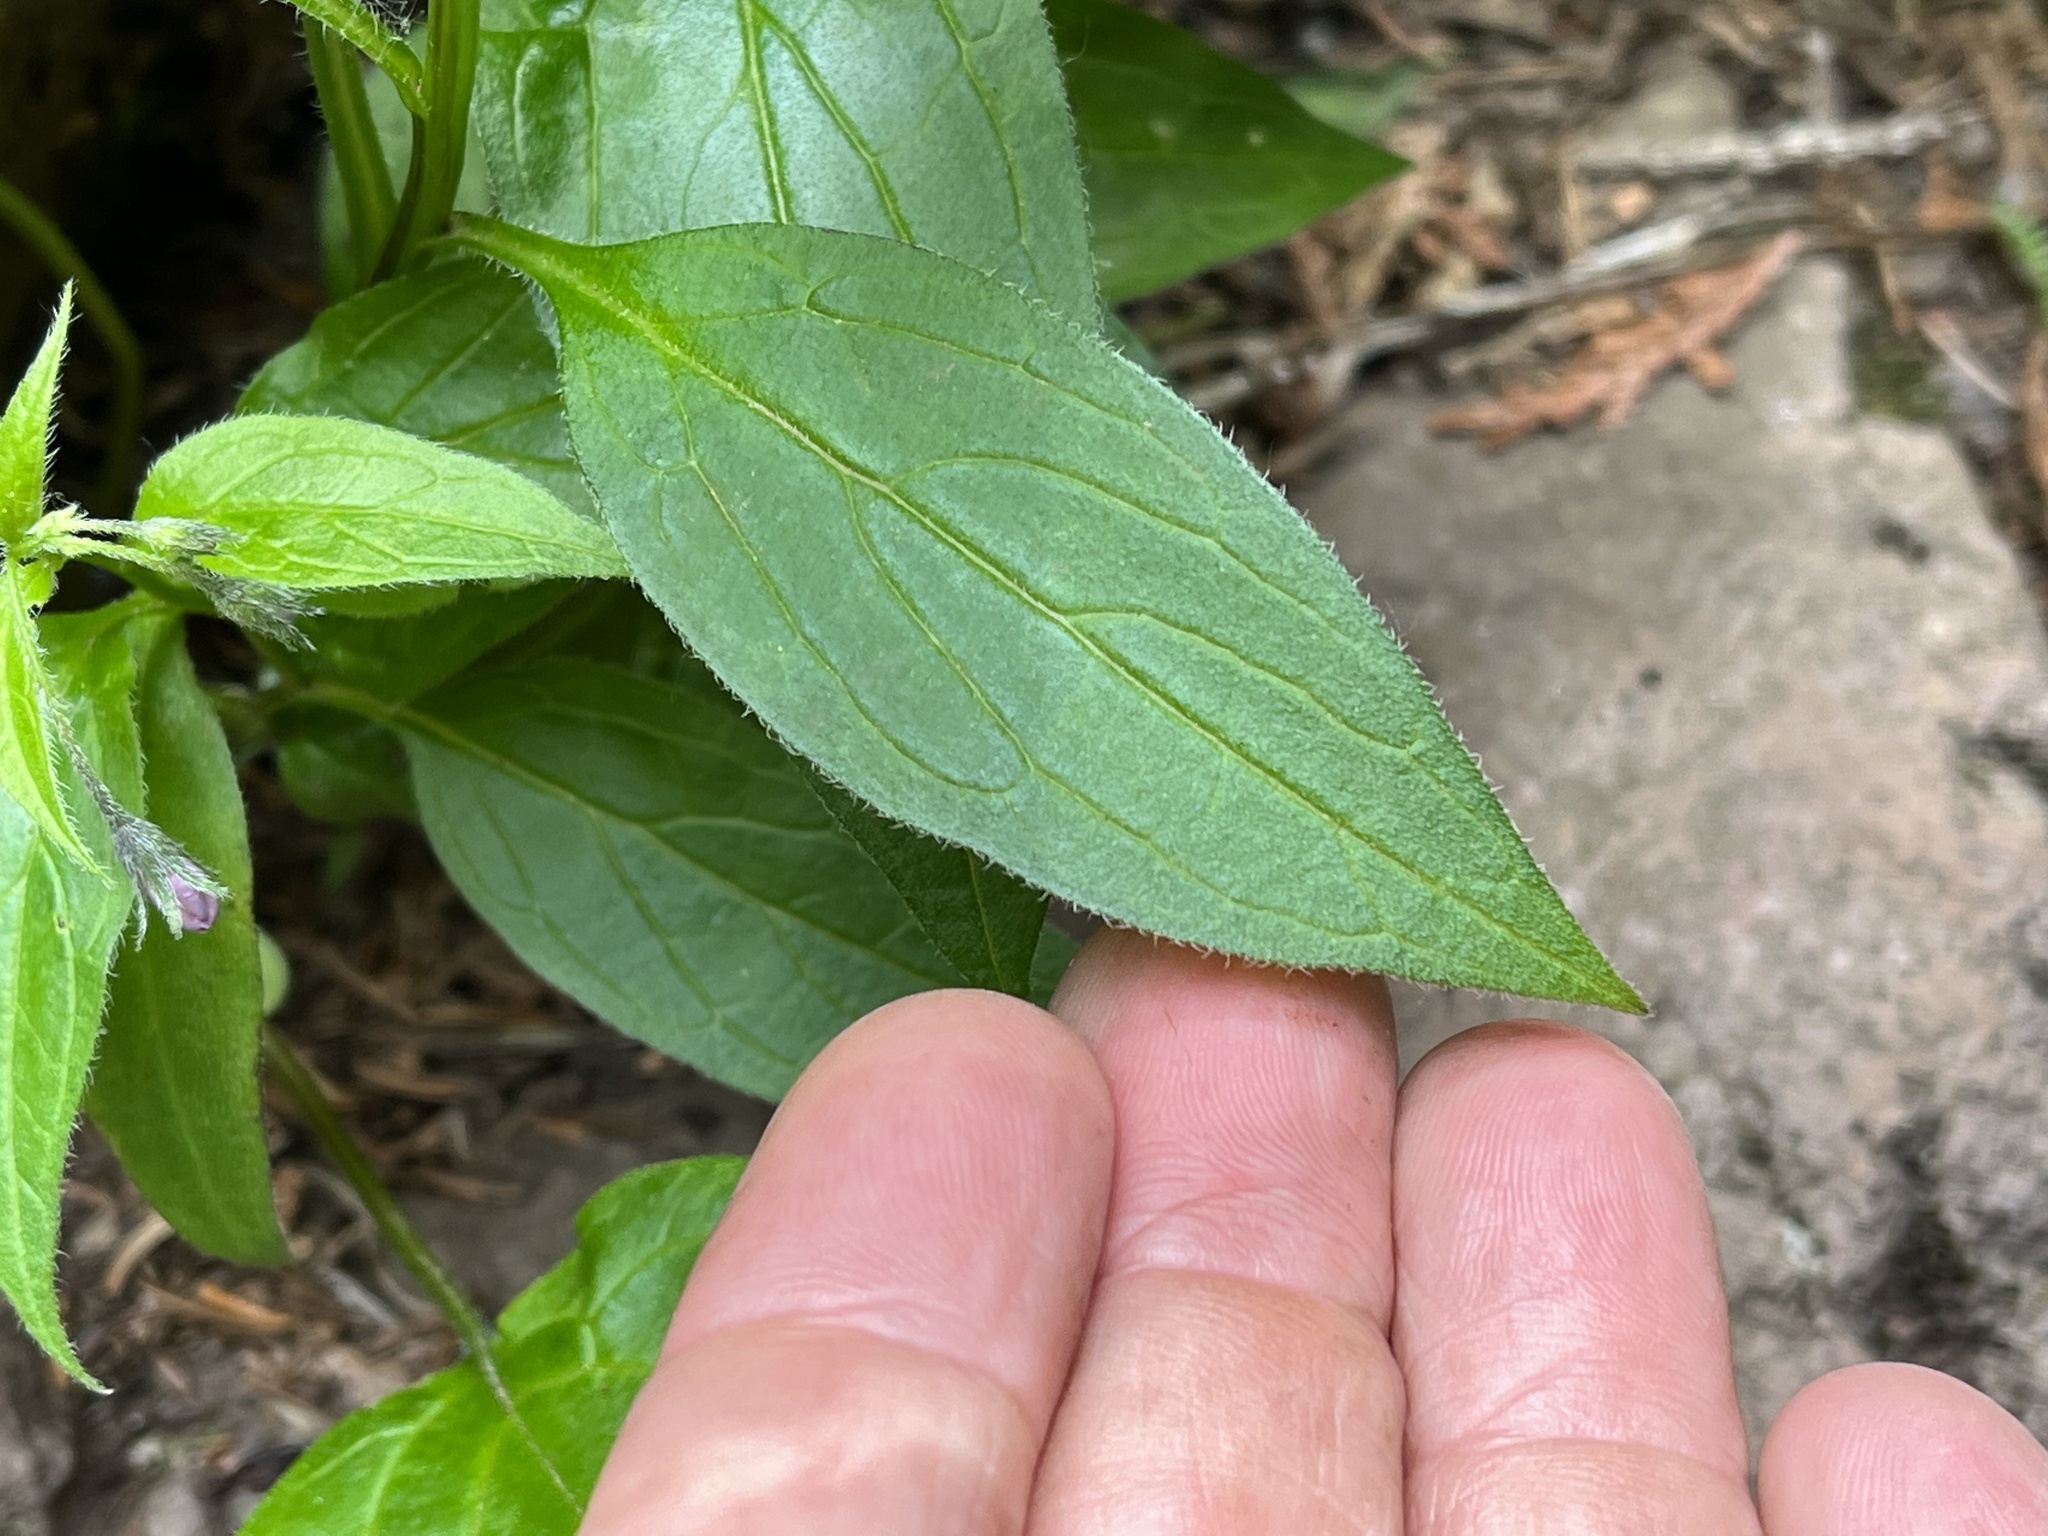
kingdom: Plantae
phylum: Tracheophyta
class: Magnoliopsida
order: Boraginales
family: Boraginaceae
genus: Mertensia
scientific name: Mertensia paniculata
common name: Panicled bluebells
